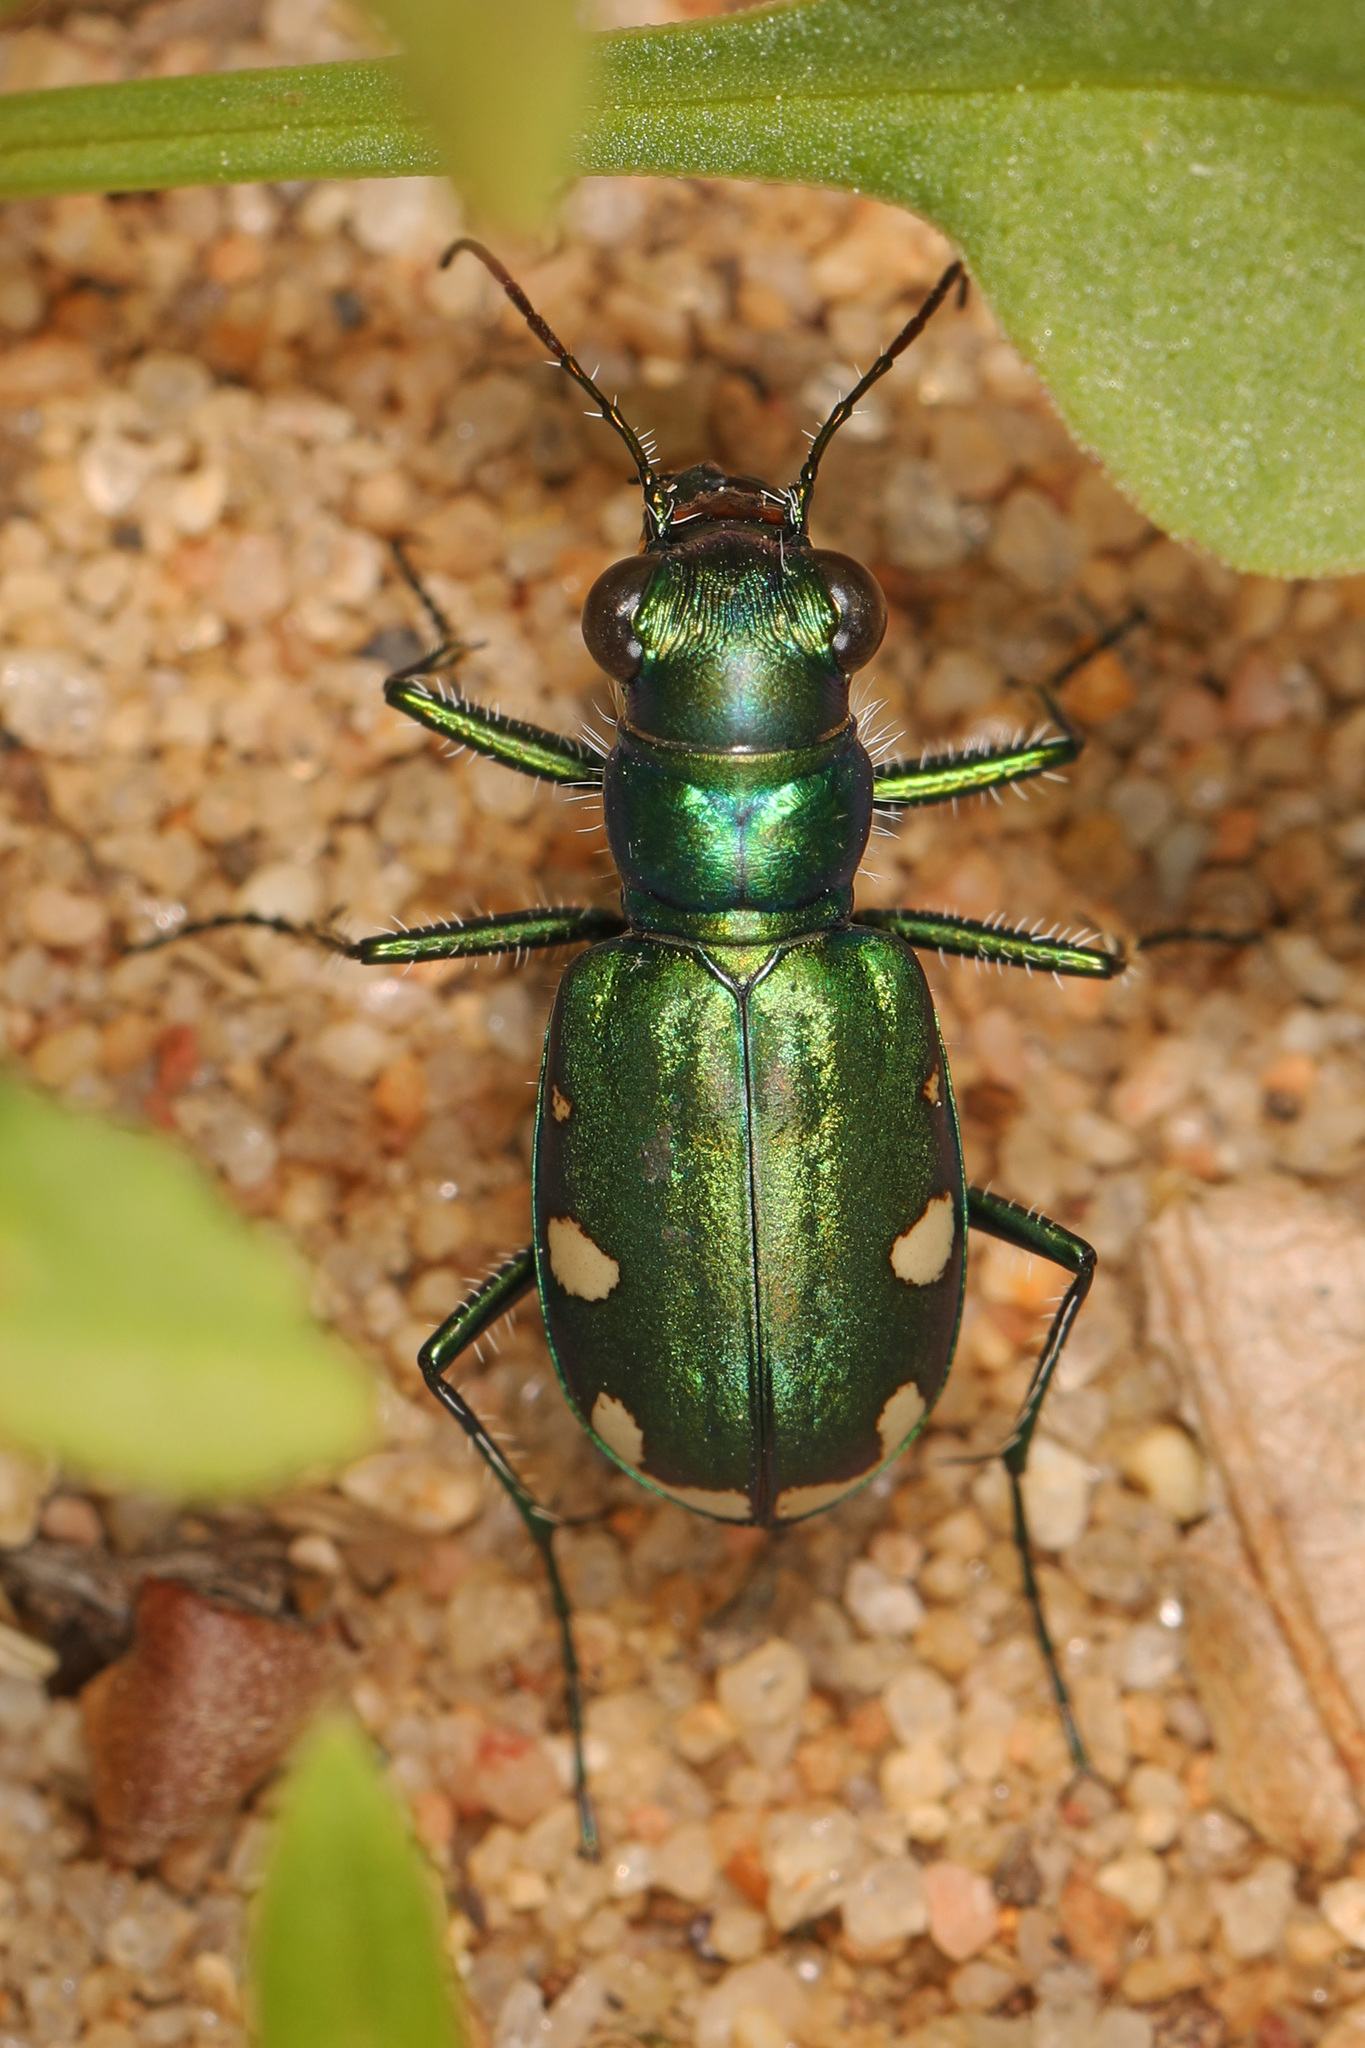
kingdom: Animalia
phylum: Arthropoda
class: Insecta
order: Coleoptera
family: Carabidae
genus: Cicindela
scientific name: Cicindela scutellaris
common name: Festive tiger beetle
